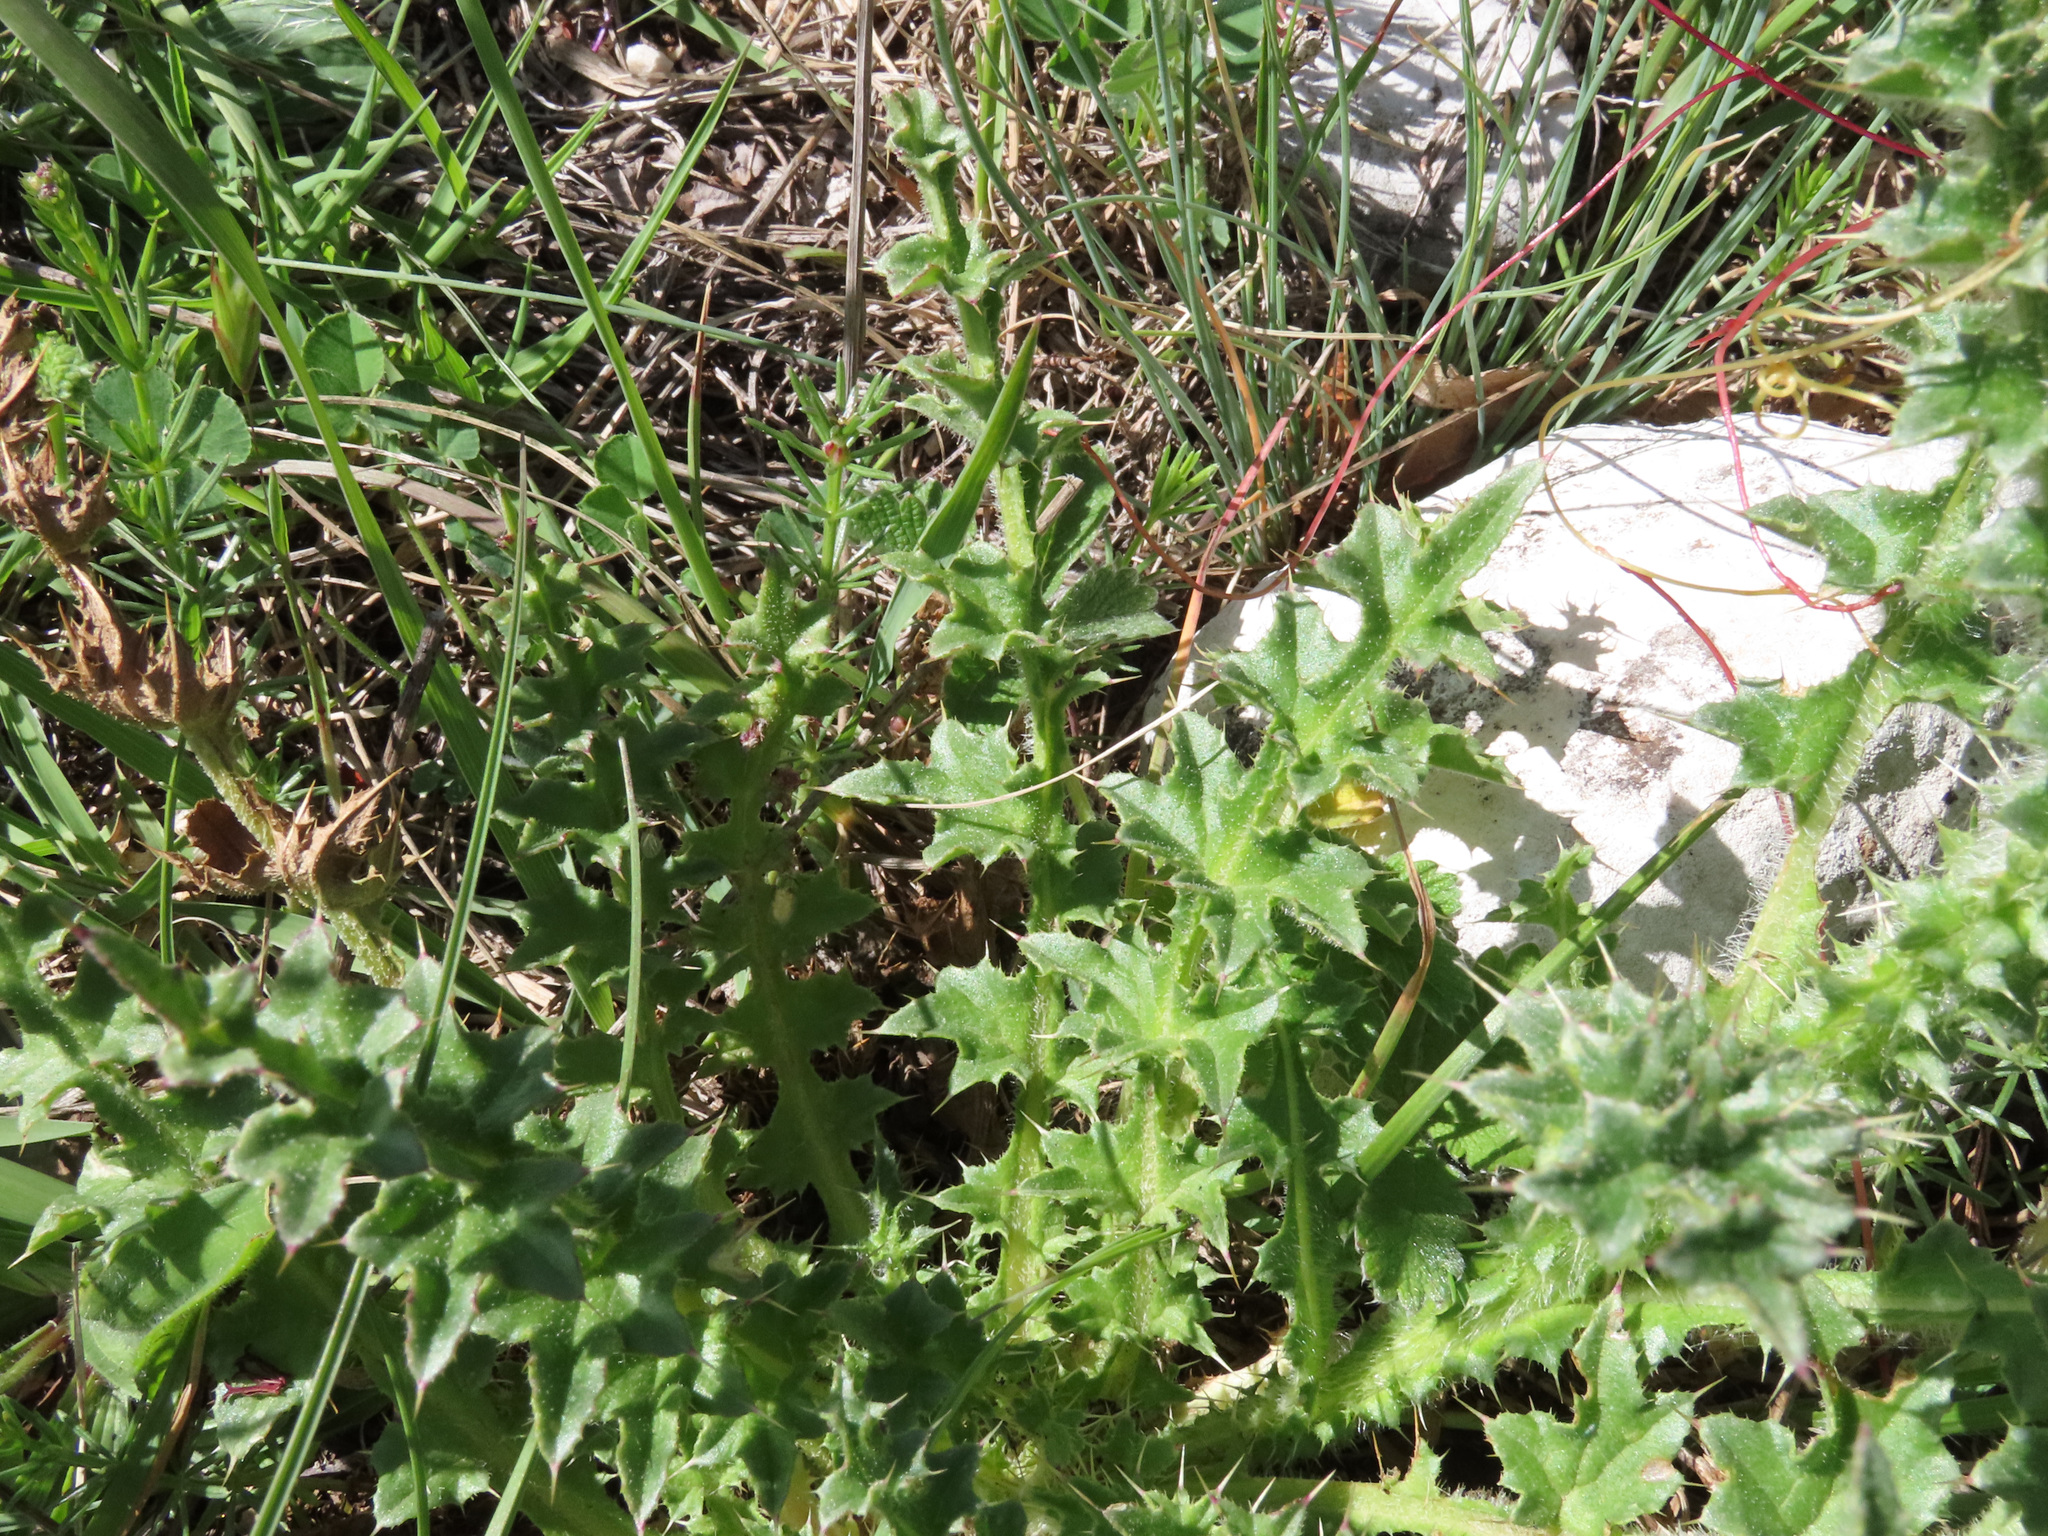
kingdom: Plantae
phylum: Tracheophyta
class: Magnoliopsida
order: Asterales
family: Asteraceae
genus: Carduus
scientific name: Carduus nutans
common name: Musk thistle
